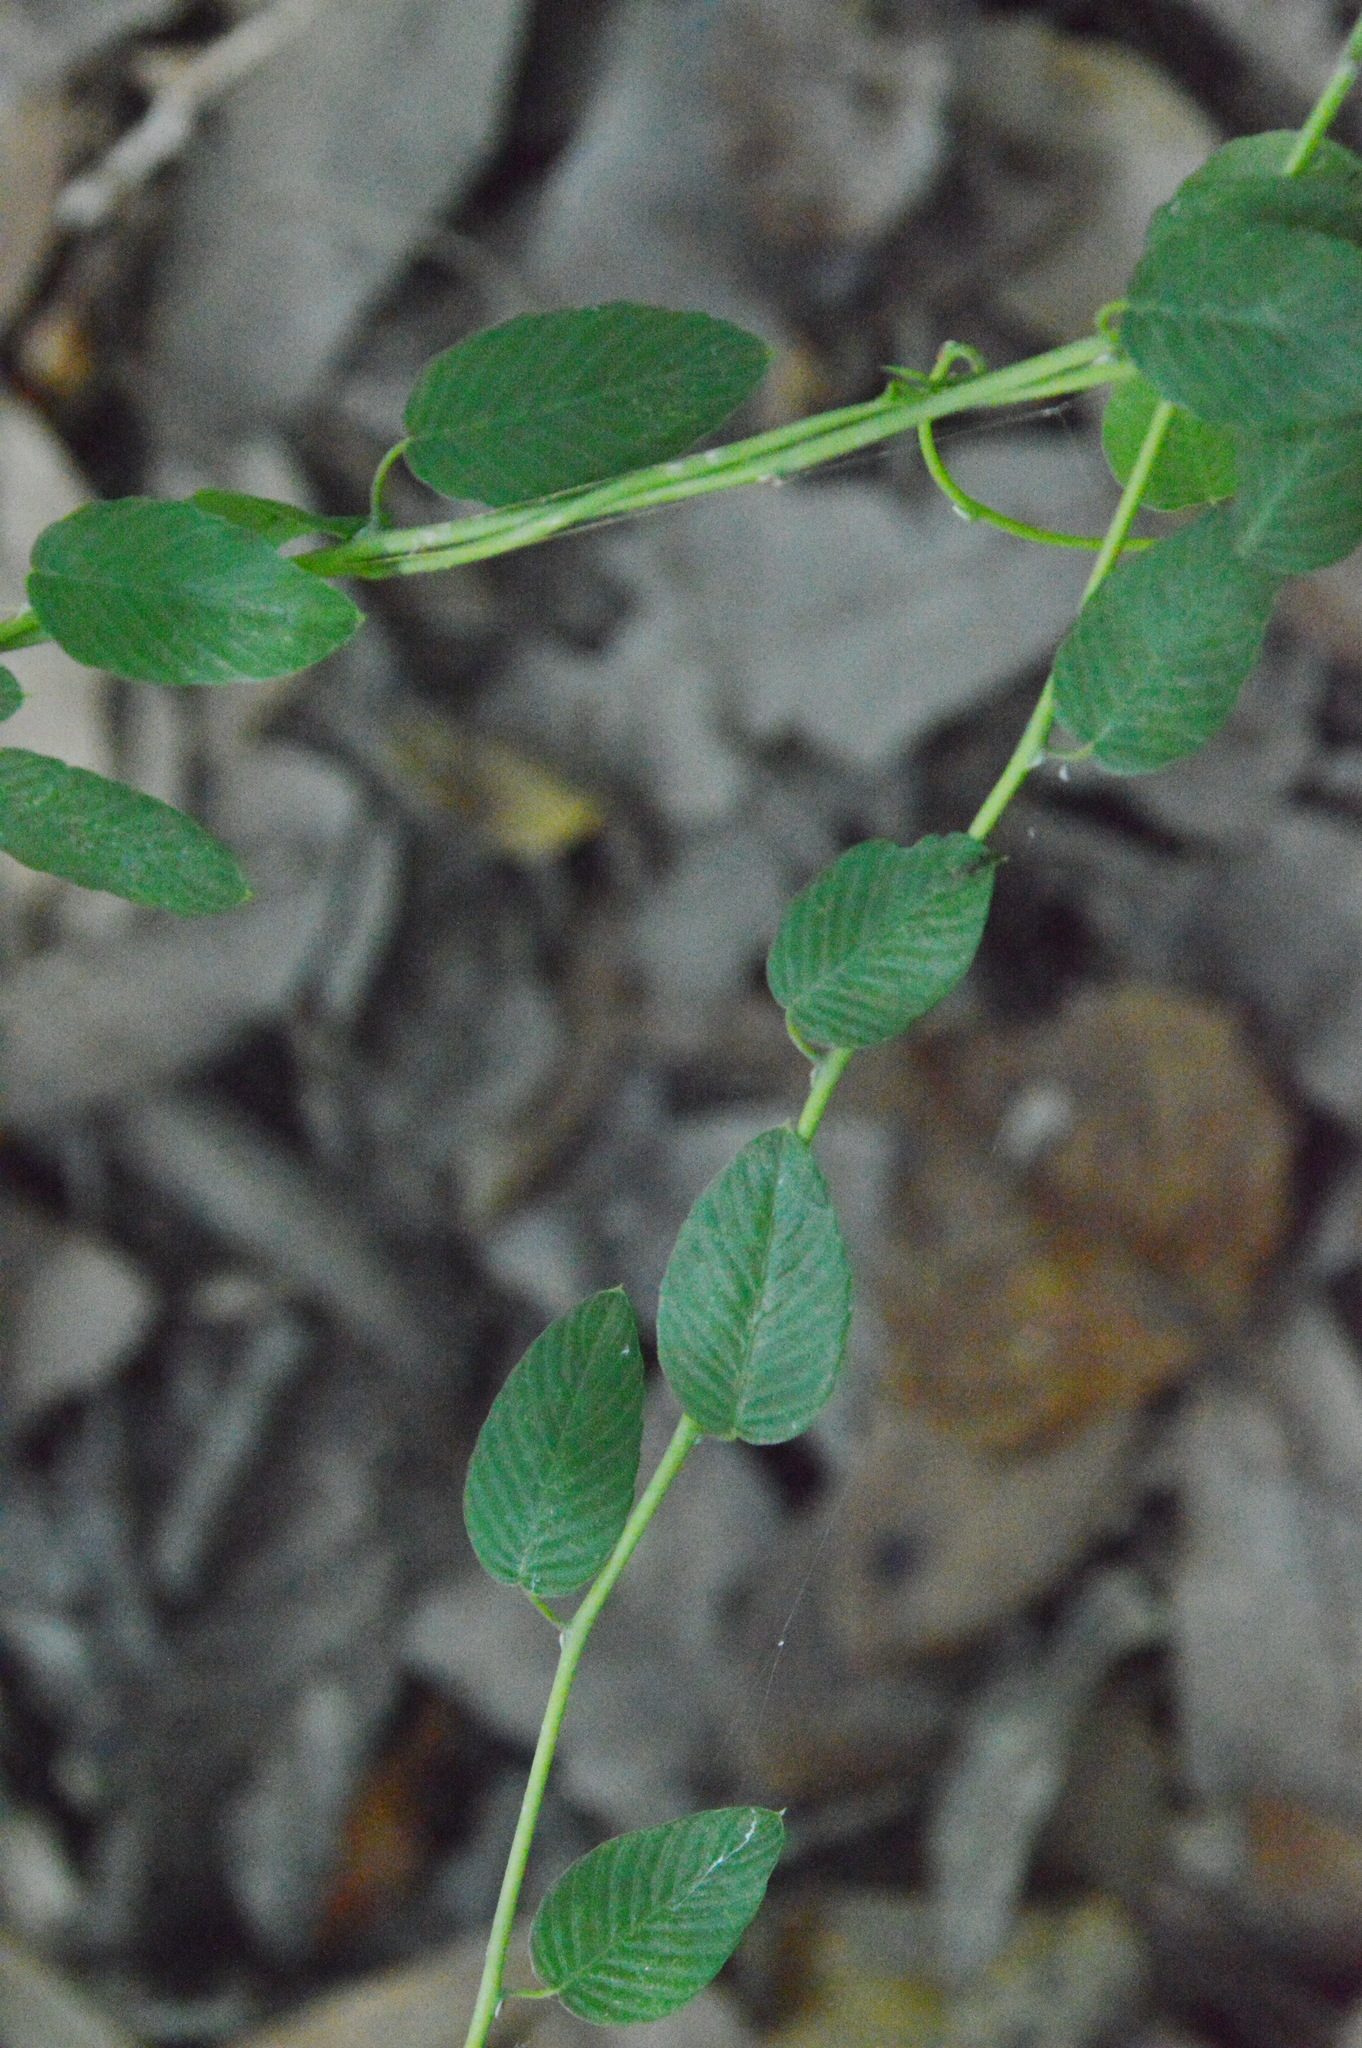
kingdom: Plantae
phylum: Tracheophyta
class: Magnoliopsida
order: Rosales
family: Rhamnaceae
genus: Berchemia
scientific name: Berchemia scandens
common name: Supplejack
